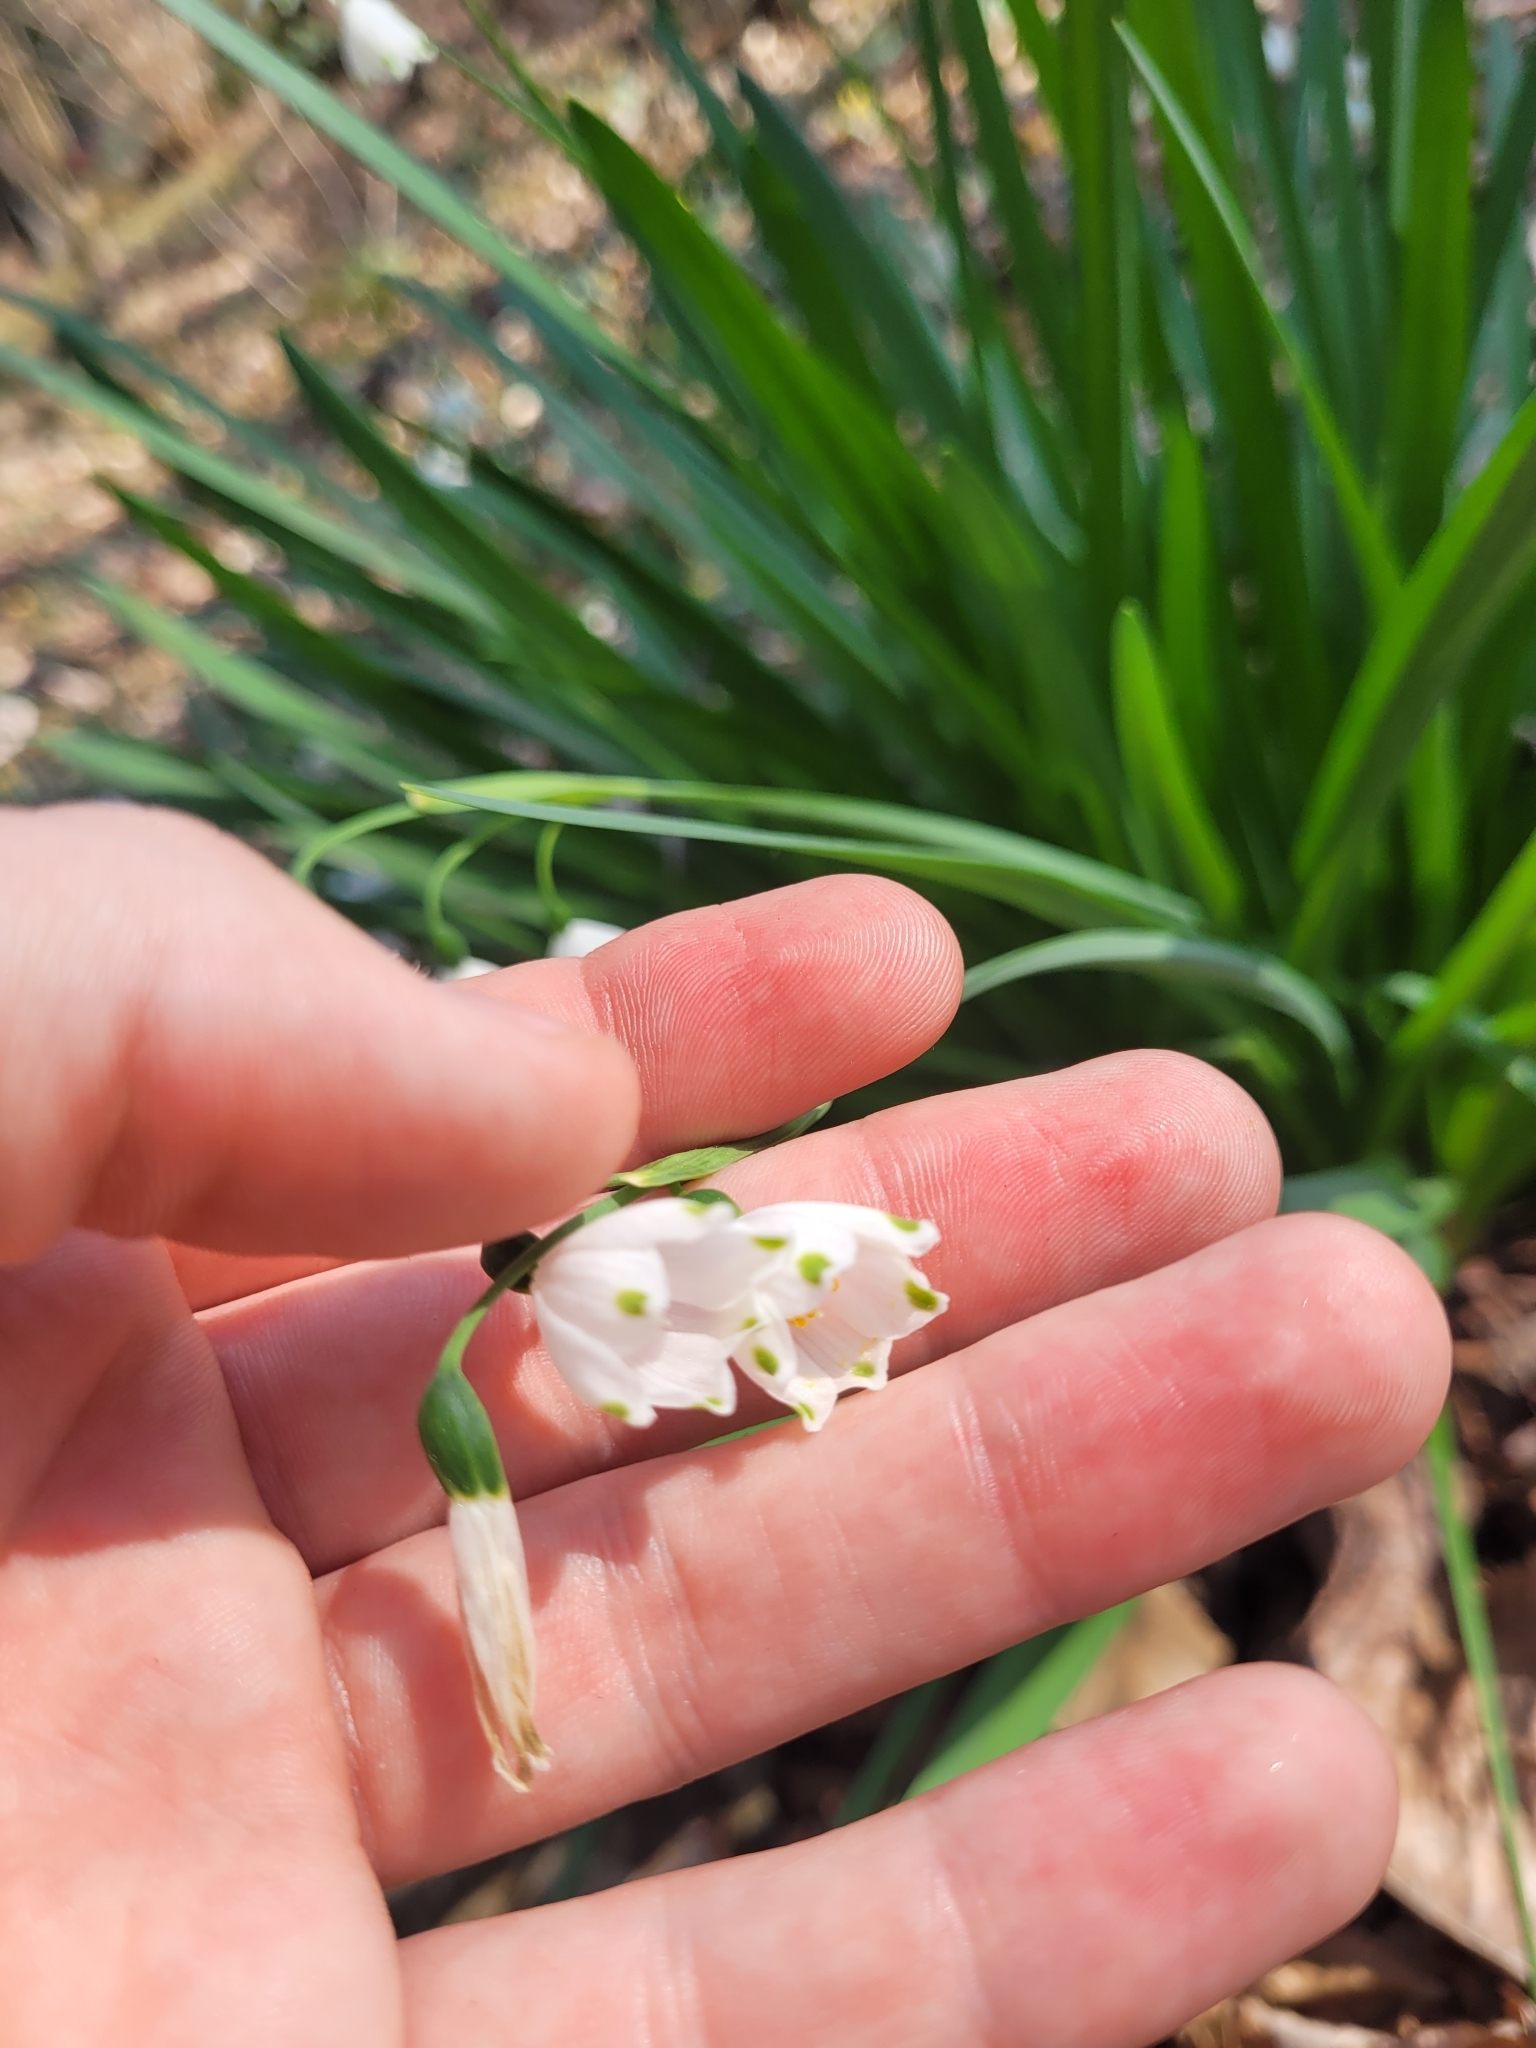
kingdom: Plantae
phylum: Tracheophyta
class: Liliopsida
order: Asparagales
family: Amaryllidaceae
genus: Leucojum
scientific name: Leucojum aestivum
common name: Summer snowflake
